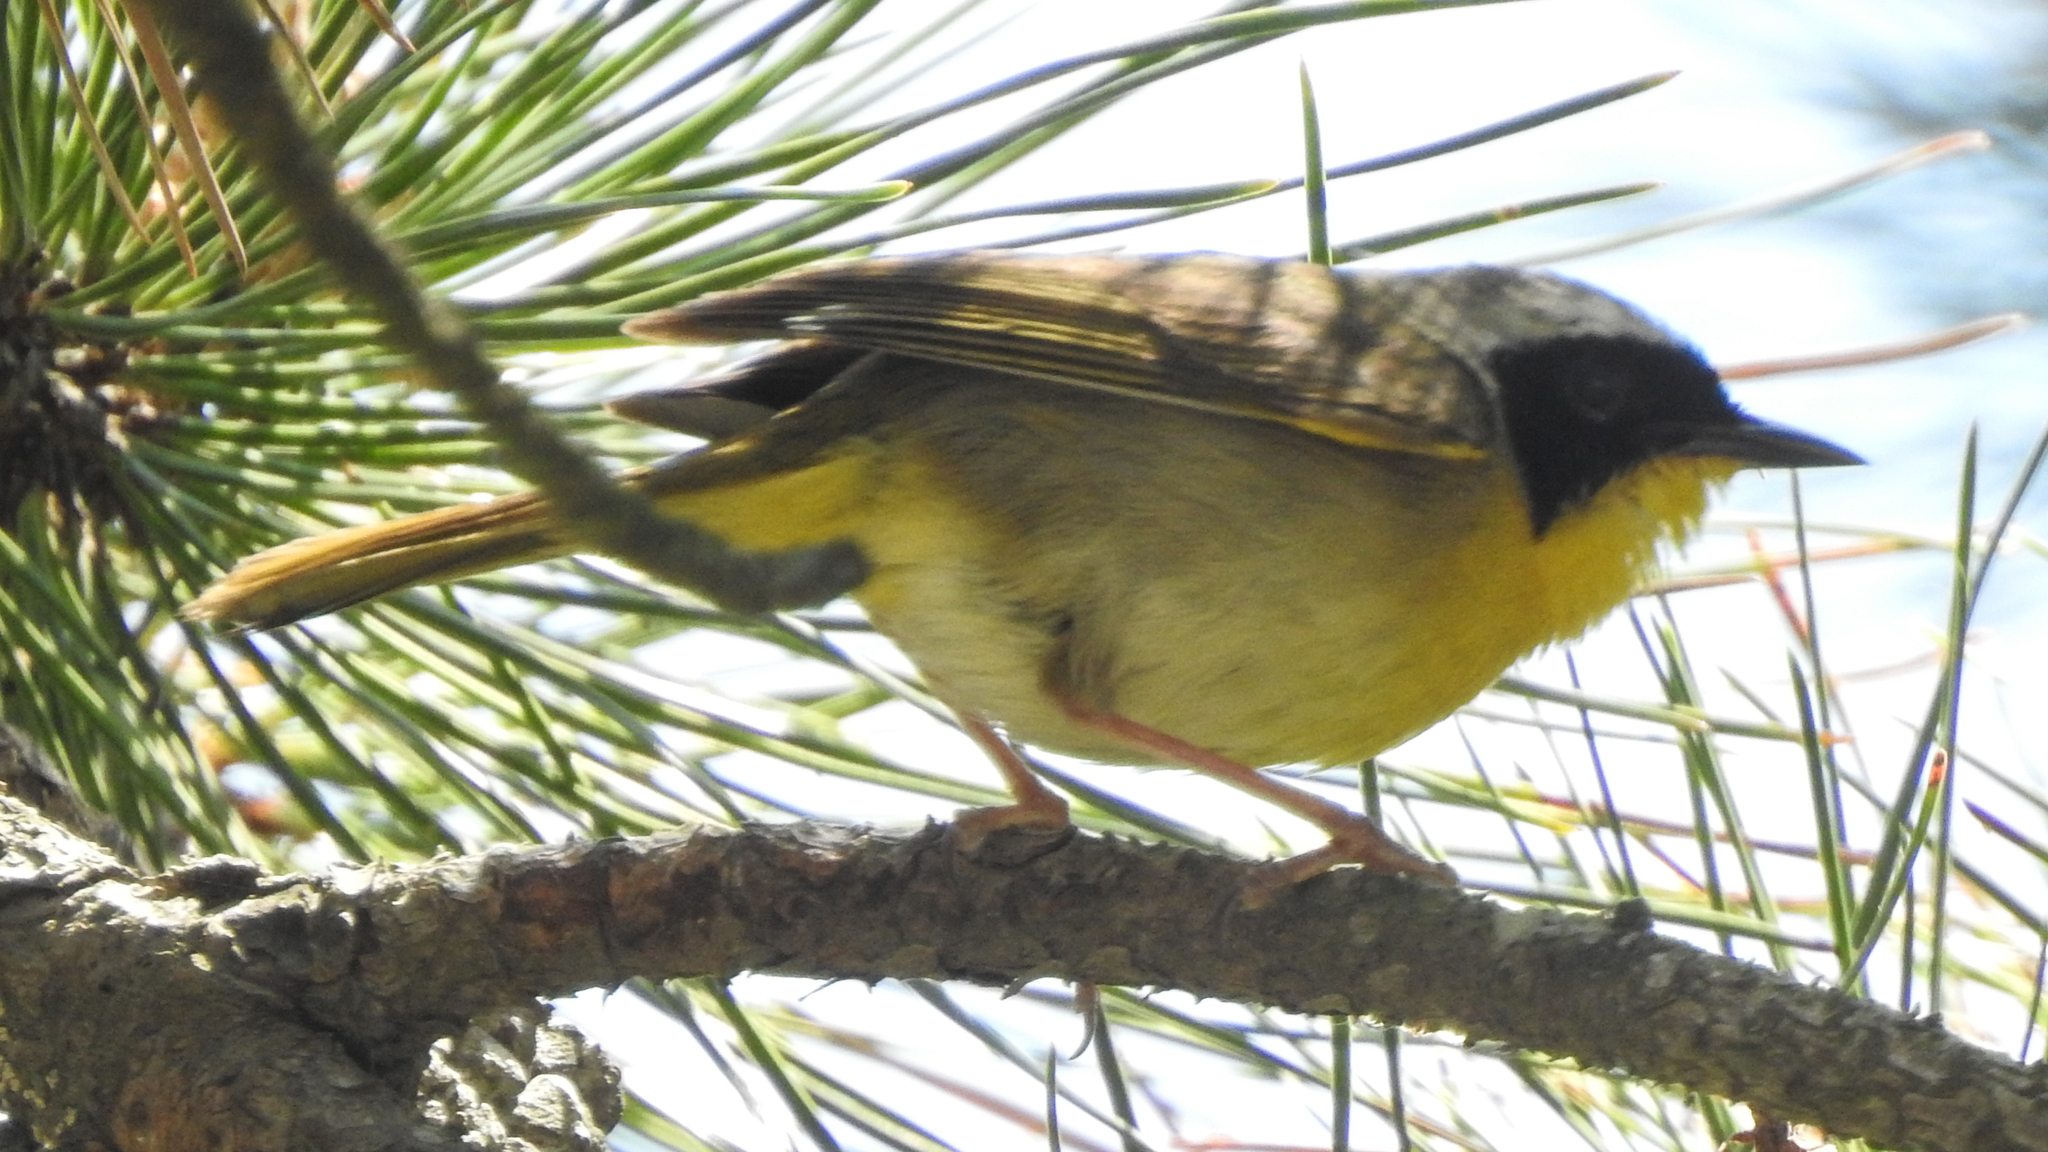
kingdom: Animalia
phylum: Chordata
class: Aves
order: Passeriformes
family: Parulidae
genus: Geothlypis
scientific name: Geothlypis trichas
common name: Common yellowthroat
